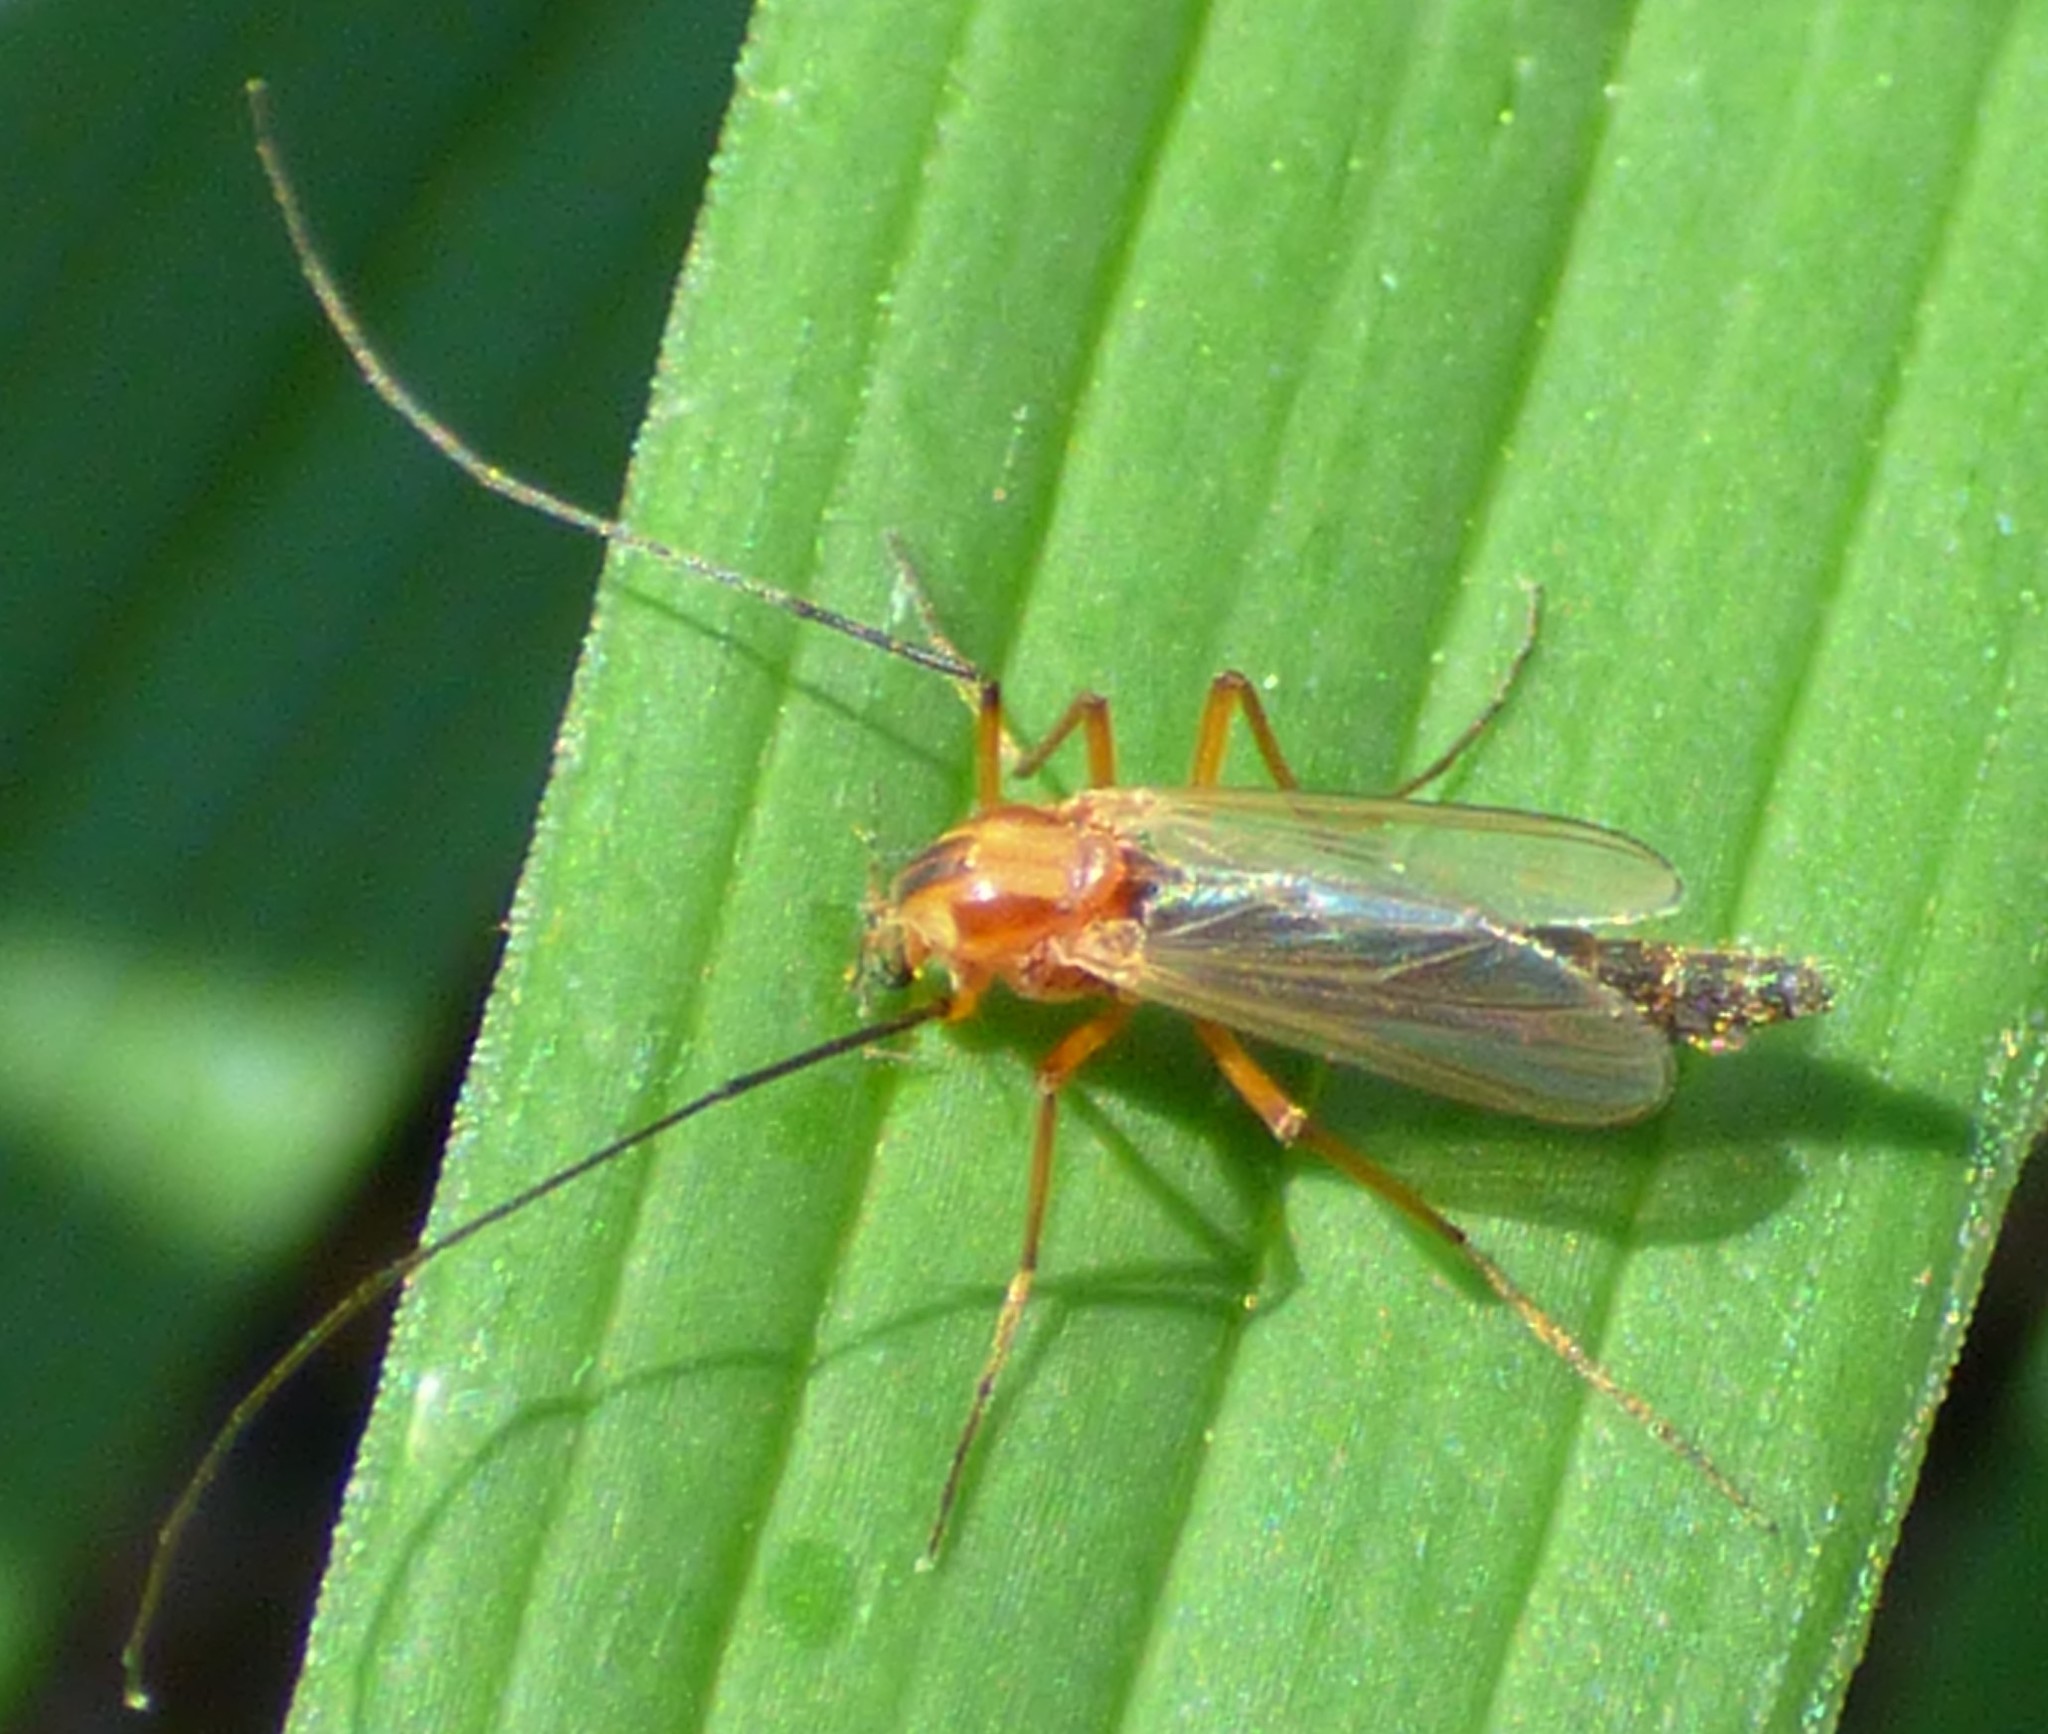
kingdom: Animalia
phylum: Arthropoda
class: Insecta
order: Diptera
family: Chironomidae
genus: Chironomus
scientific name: Chironomus ochreatus
